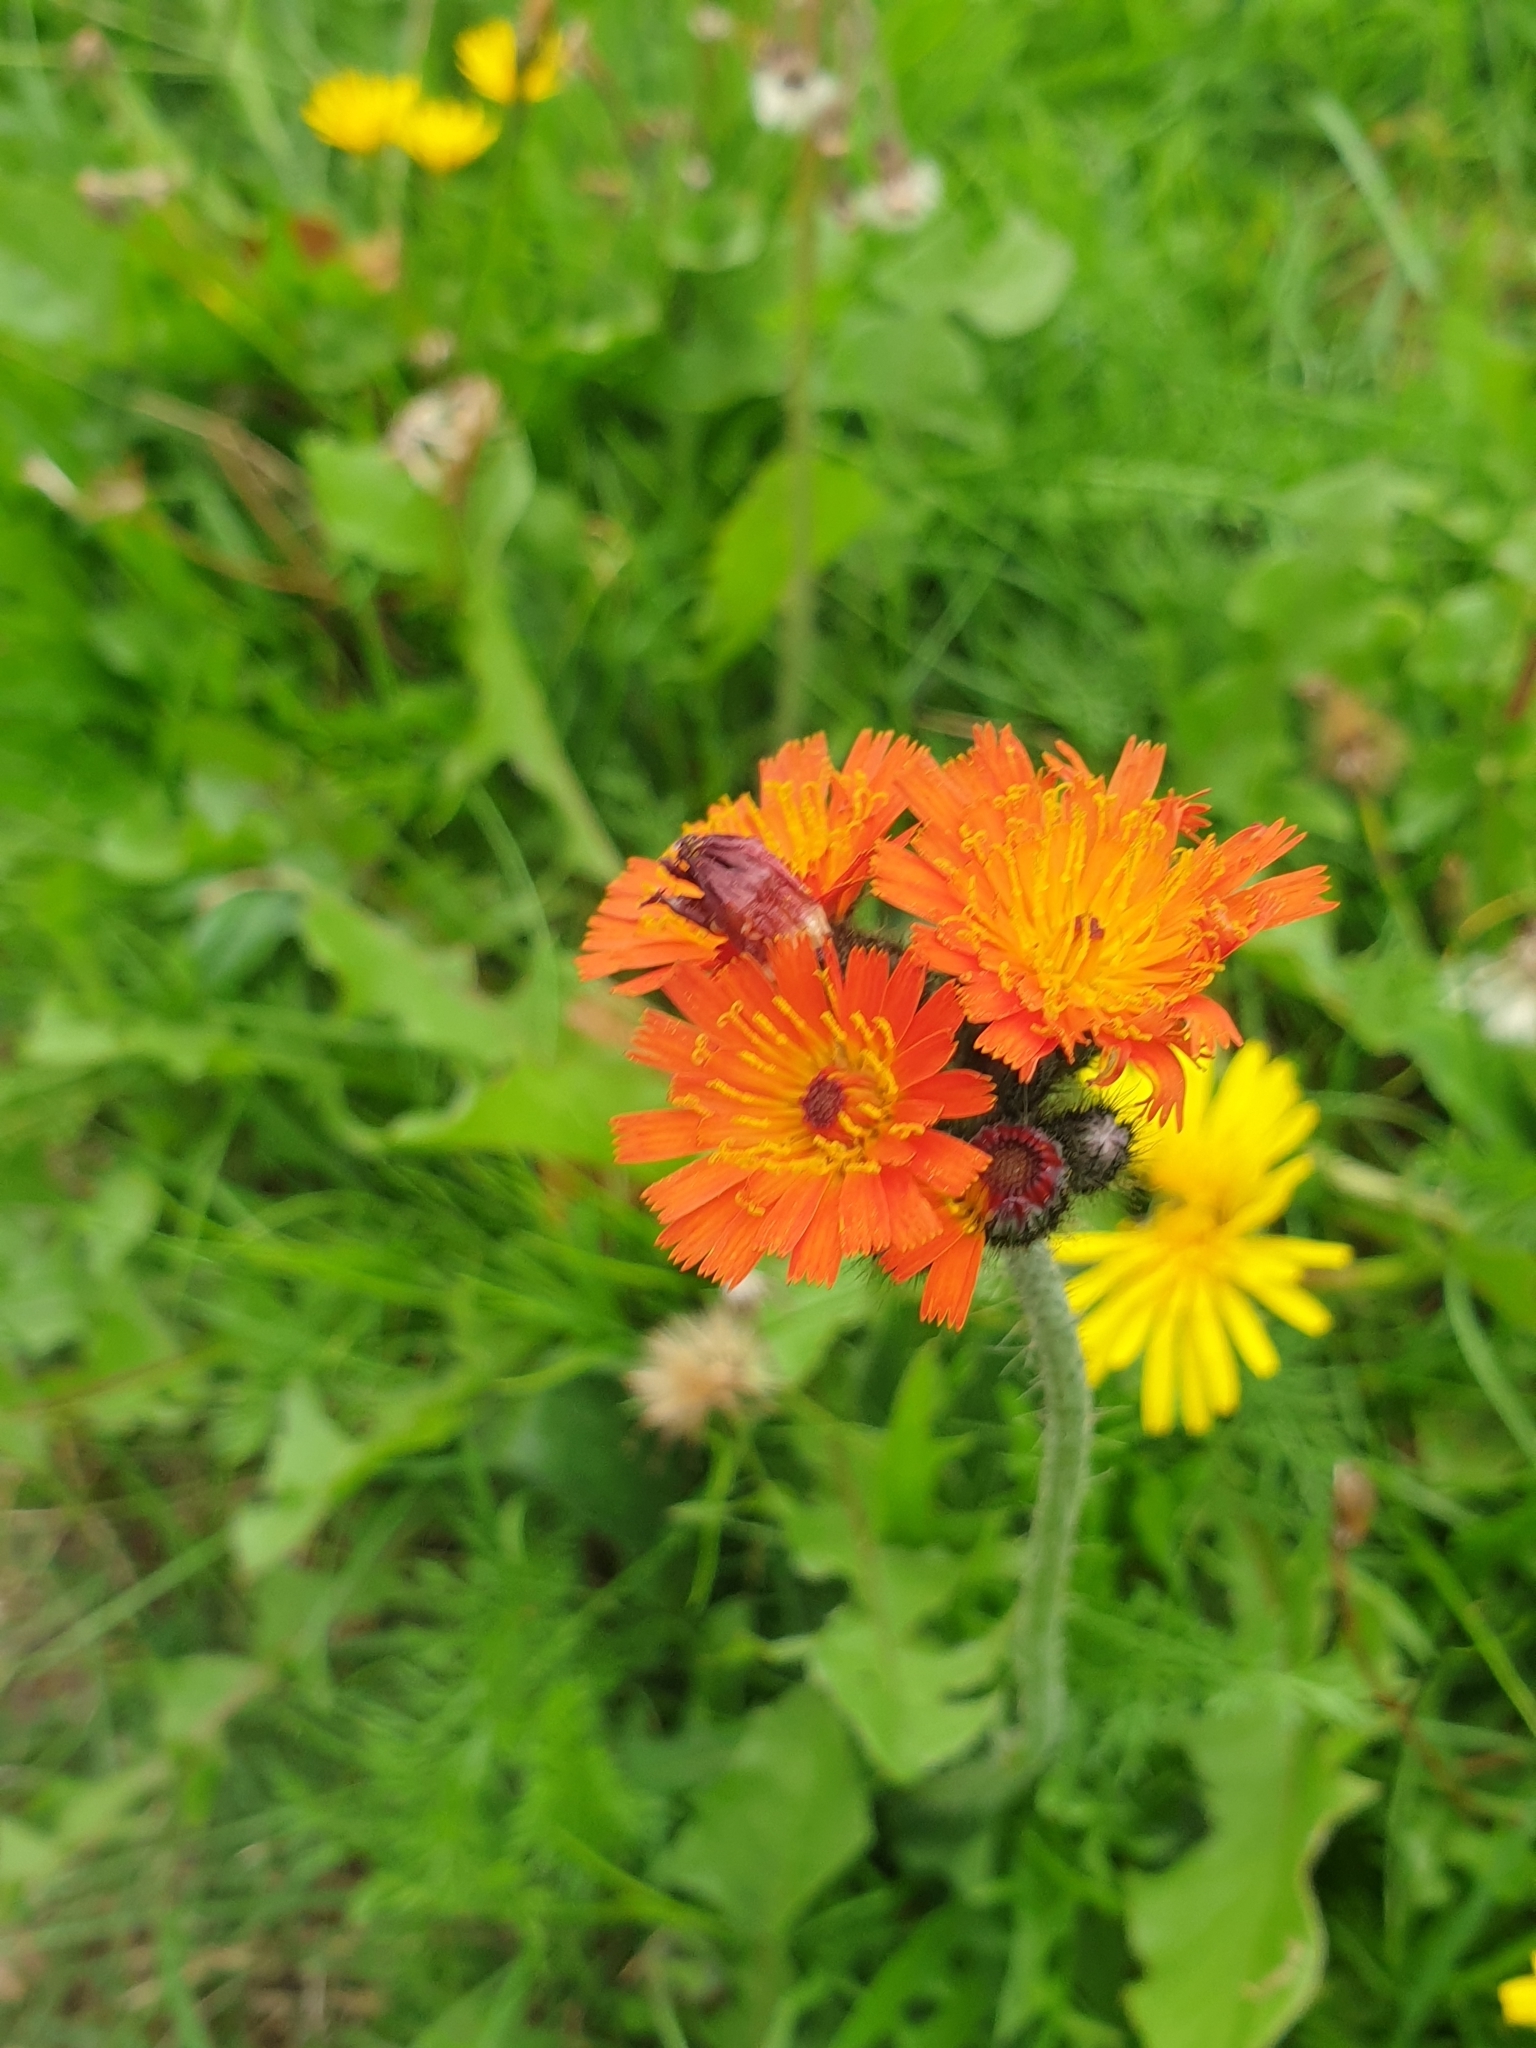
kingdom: Plantae
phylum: Tracheophyta
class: Magnoliopsida
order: Asterales
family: Asteraceae
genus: Pilosella
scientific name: Pilosella aurantiaca
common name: Fox-and-cubs
